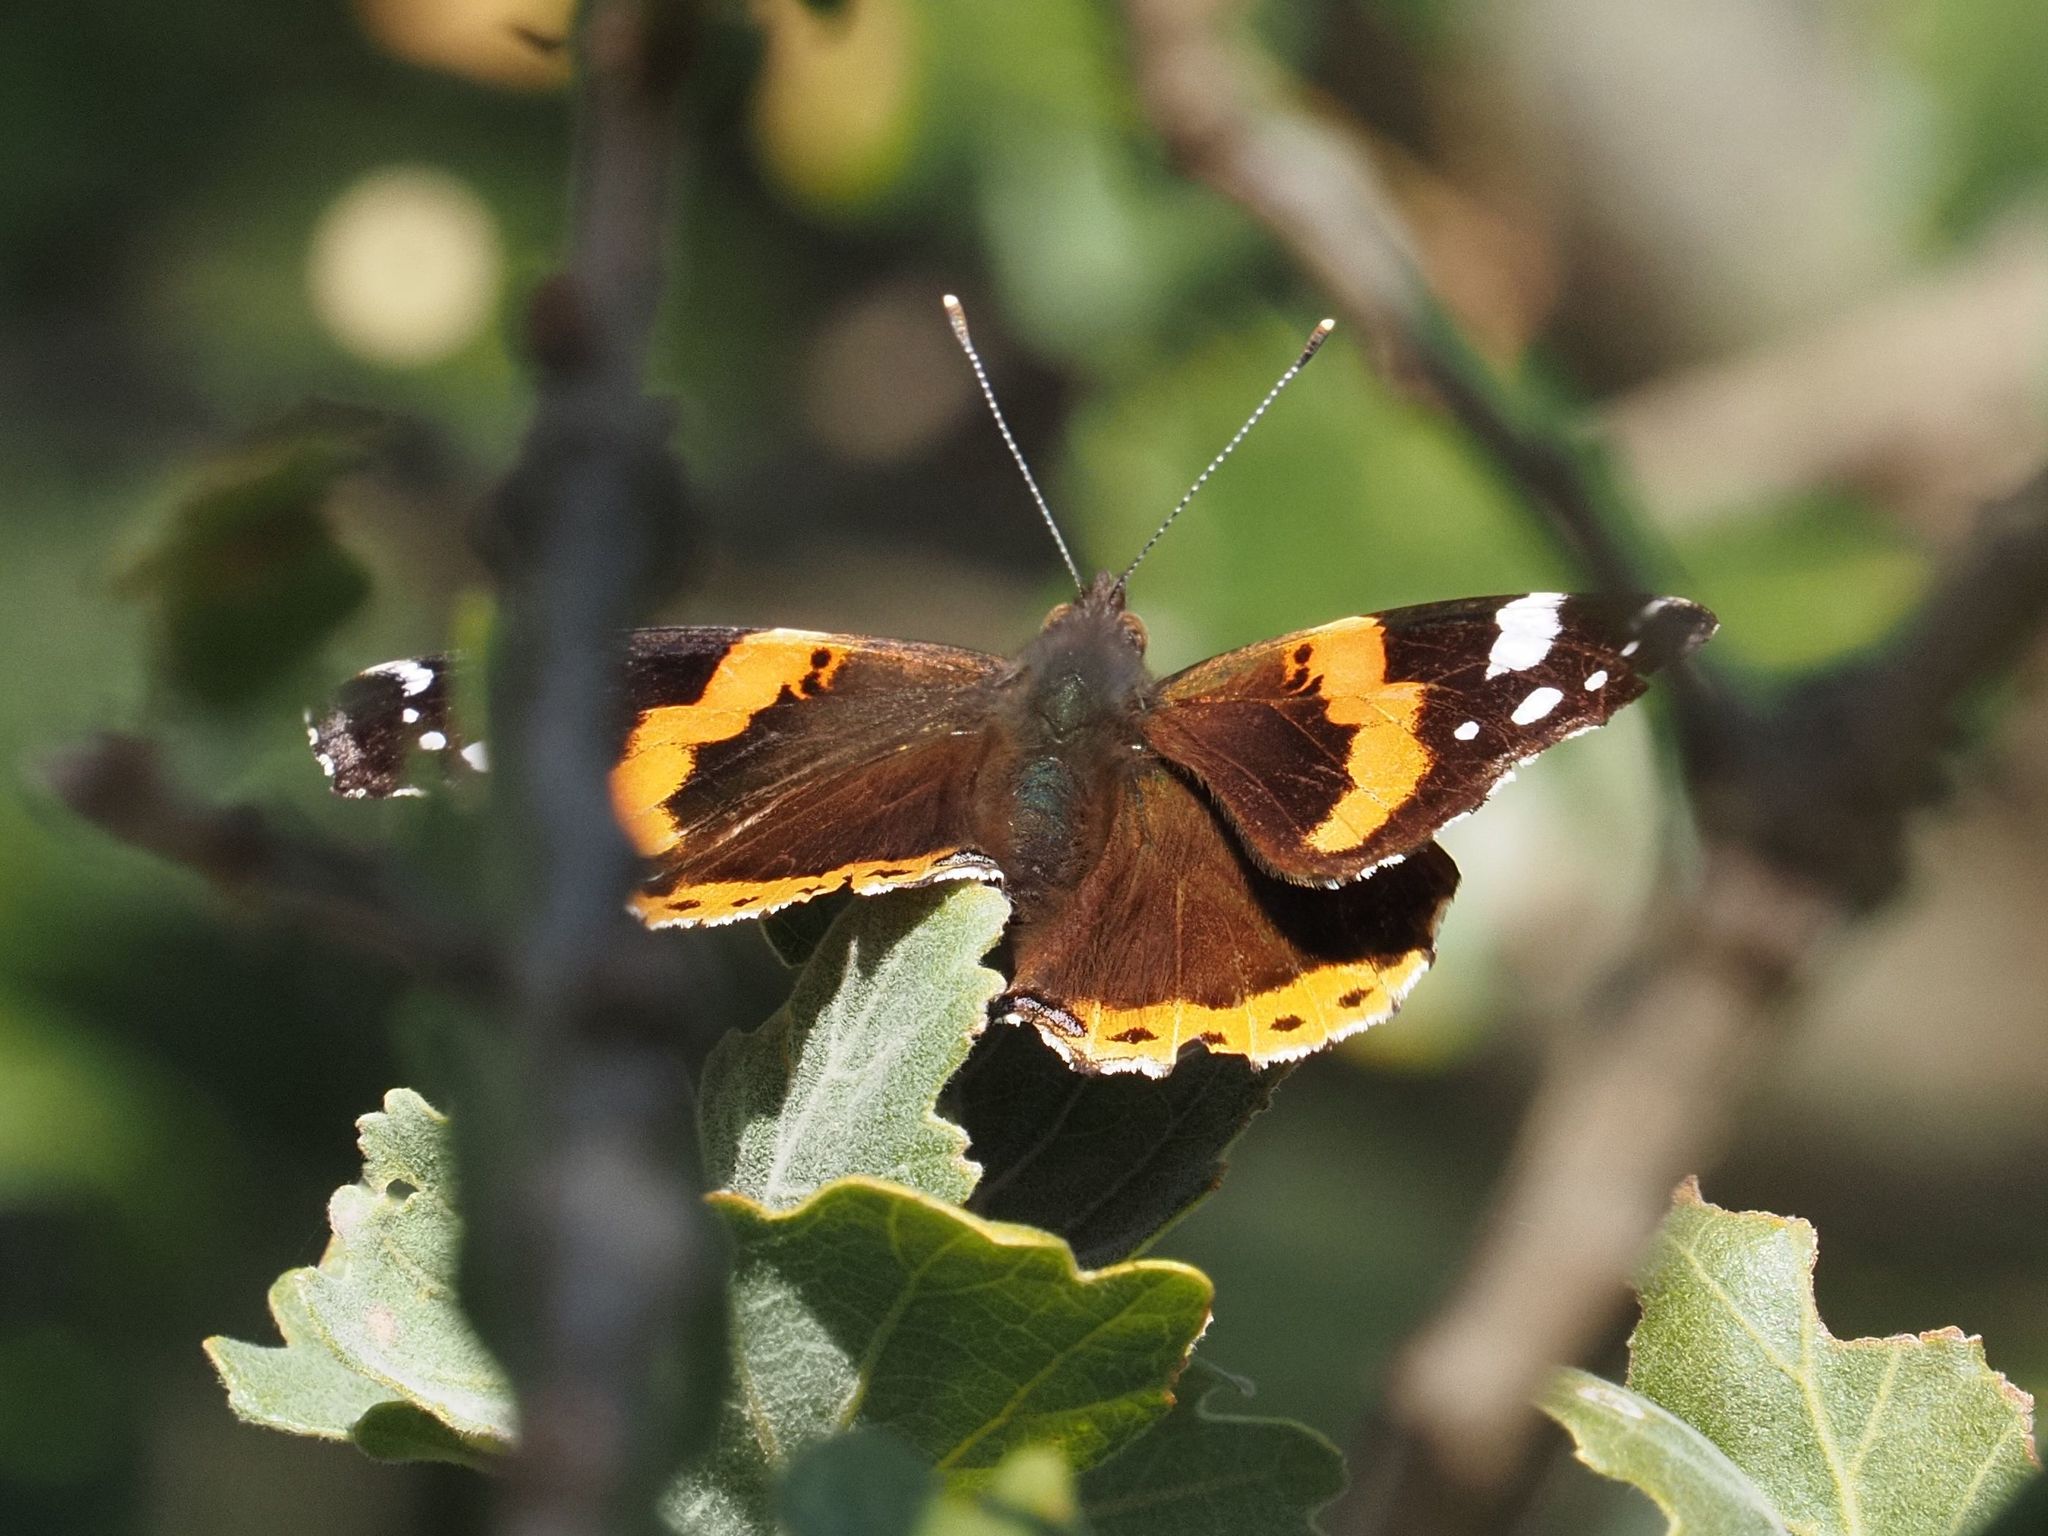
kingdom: Animalia
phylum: Arthropoda
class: Insecta
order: Lepidoptera
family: Nymphalidae
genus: Vanessa
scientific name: Vanessa atalanta
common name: Red admiral
